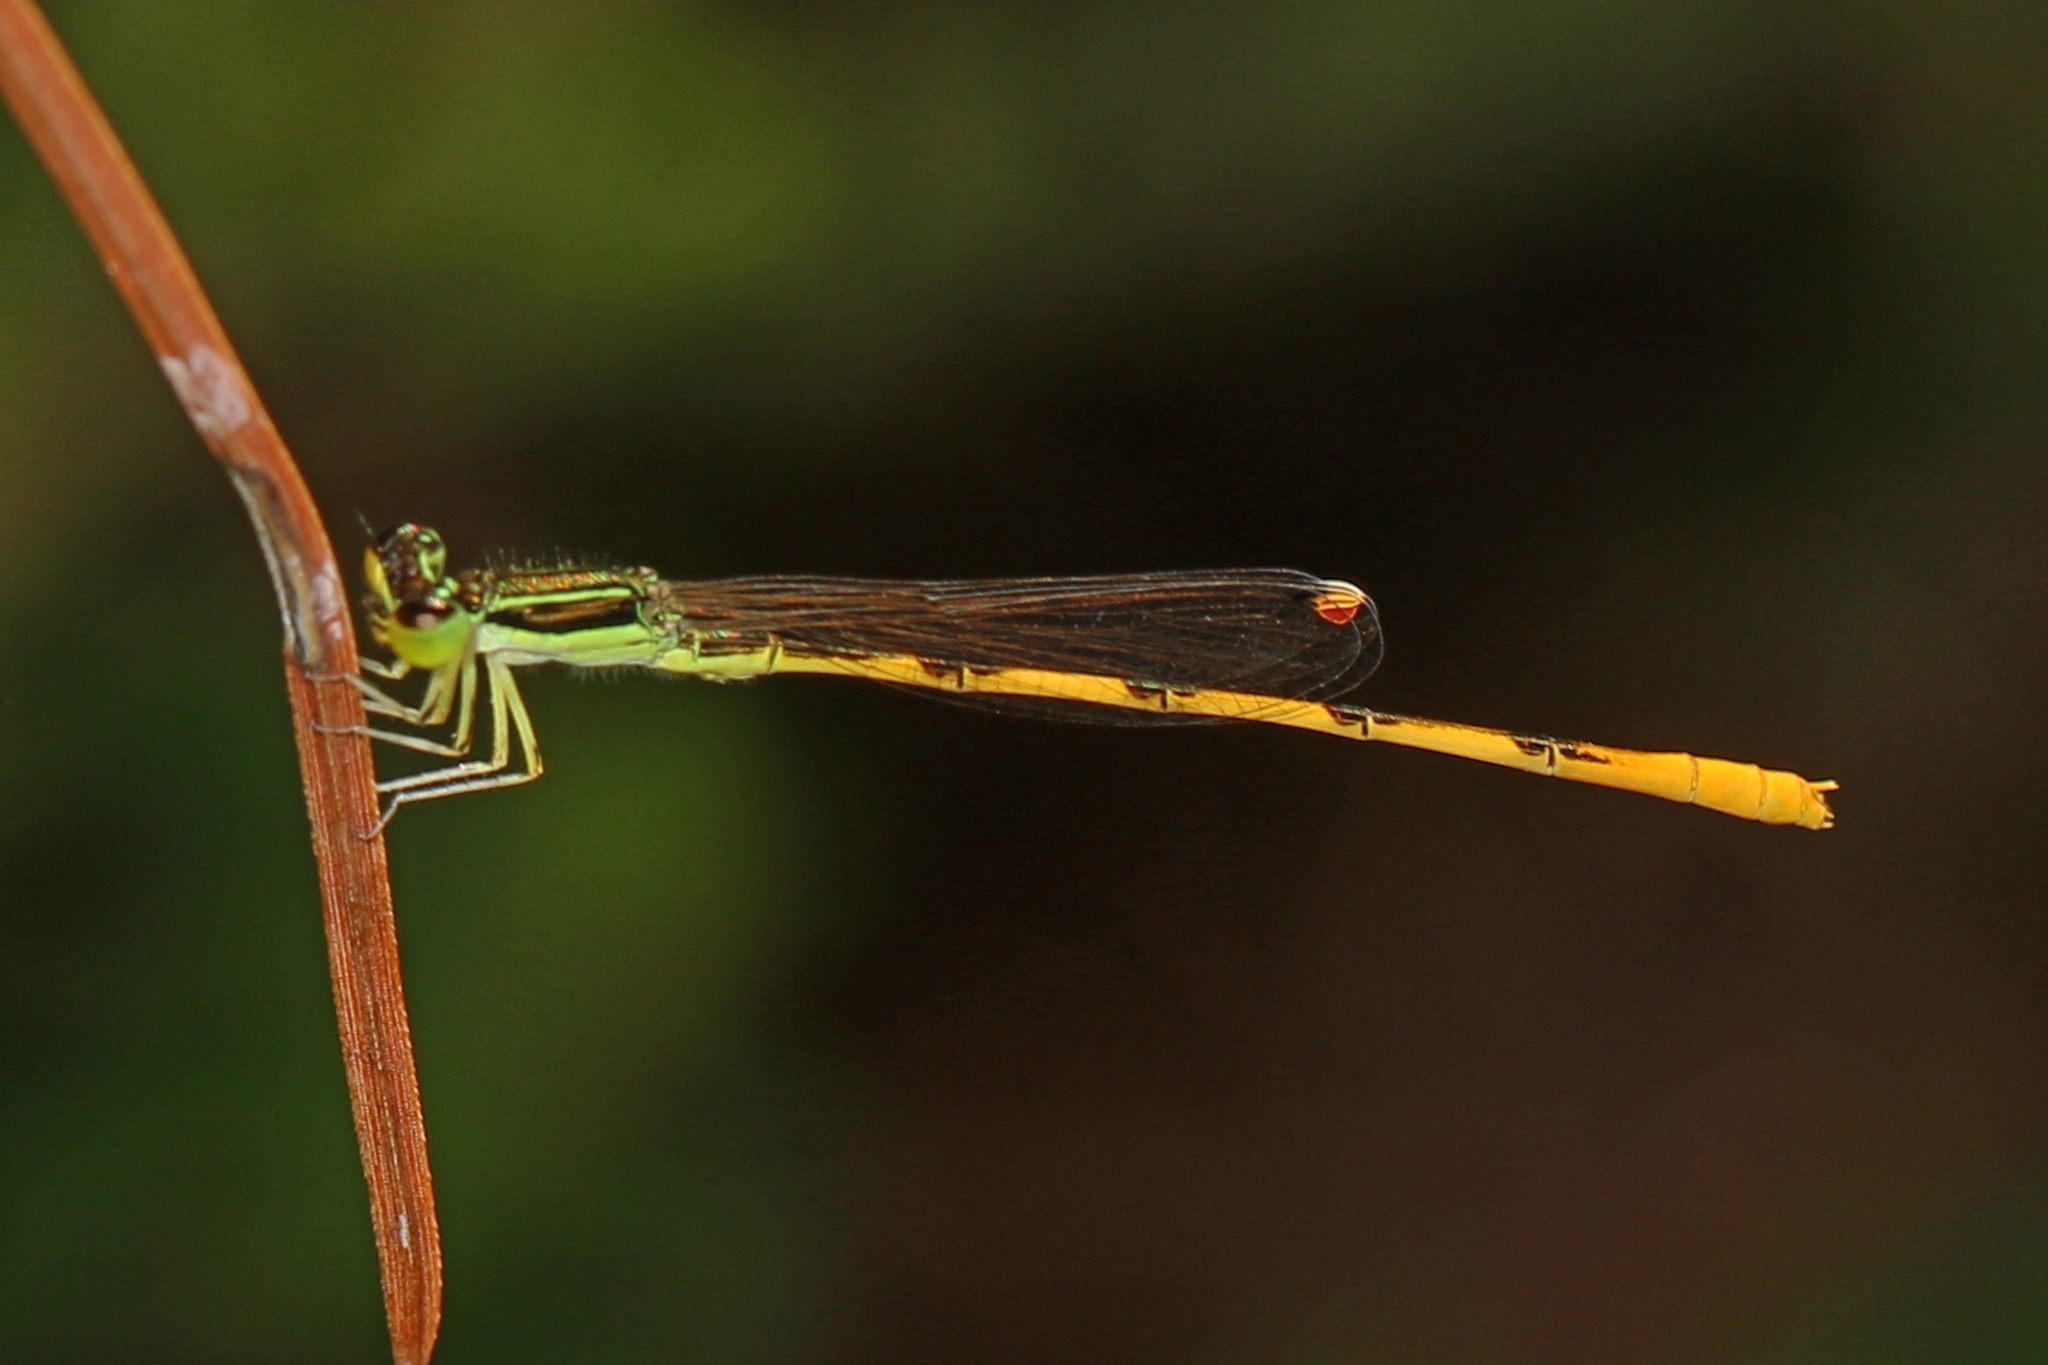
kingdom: Animalia
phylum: Arthropoda
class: Insecta
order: Odonata
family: Coenagrionidae
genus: Ischnura
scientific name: Ischnura hastata
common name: Citrine forktail
